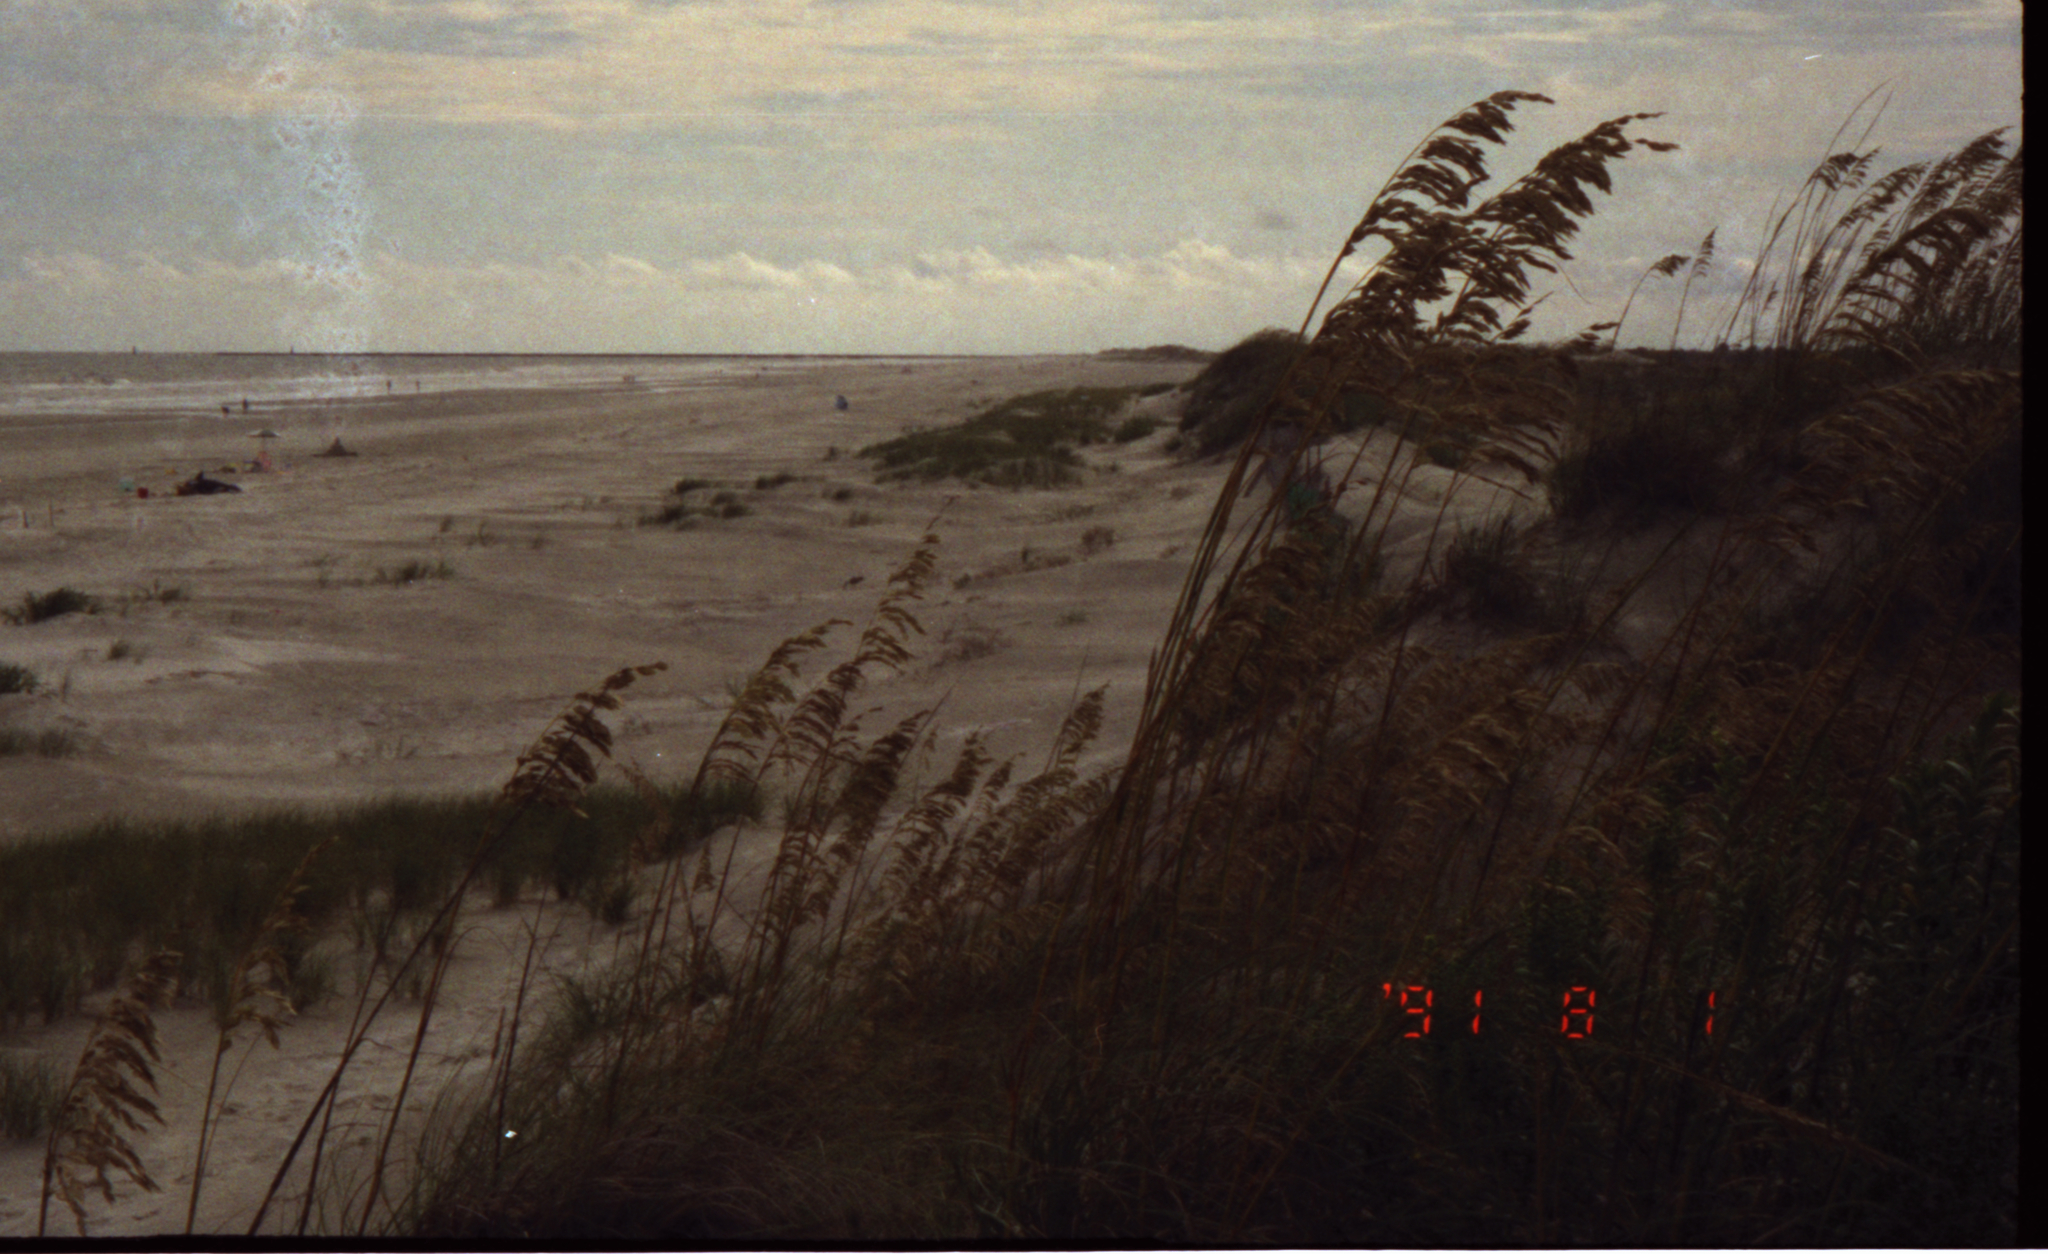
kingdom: Plantae
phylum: Tracheophyta
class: Liliopsida
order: Poales
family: Poaceae
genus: Uniola
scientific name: Uniola paniculata
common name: Seaside-oats
